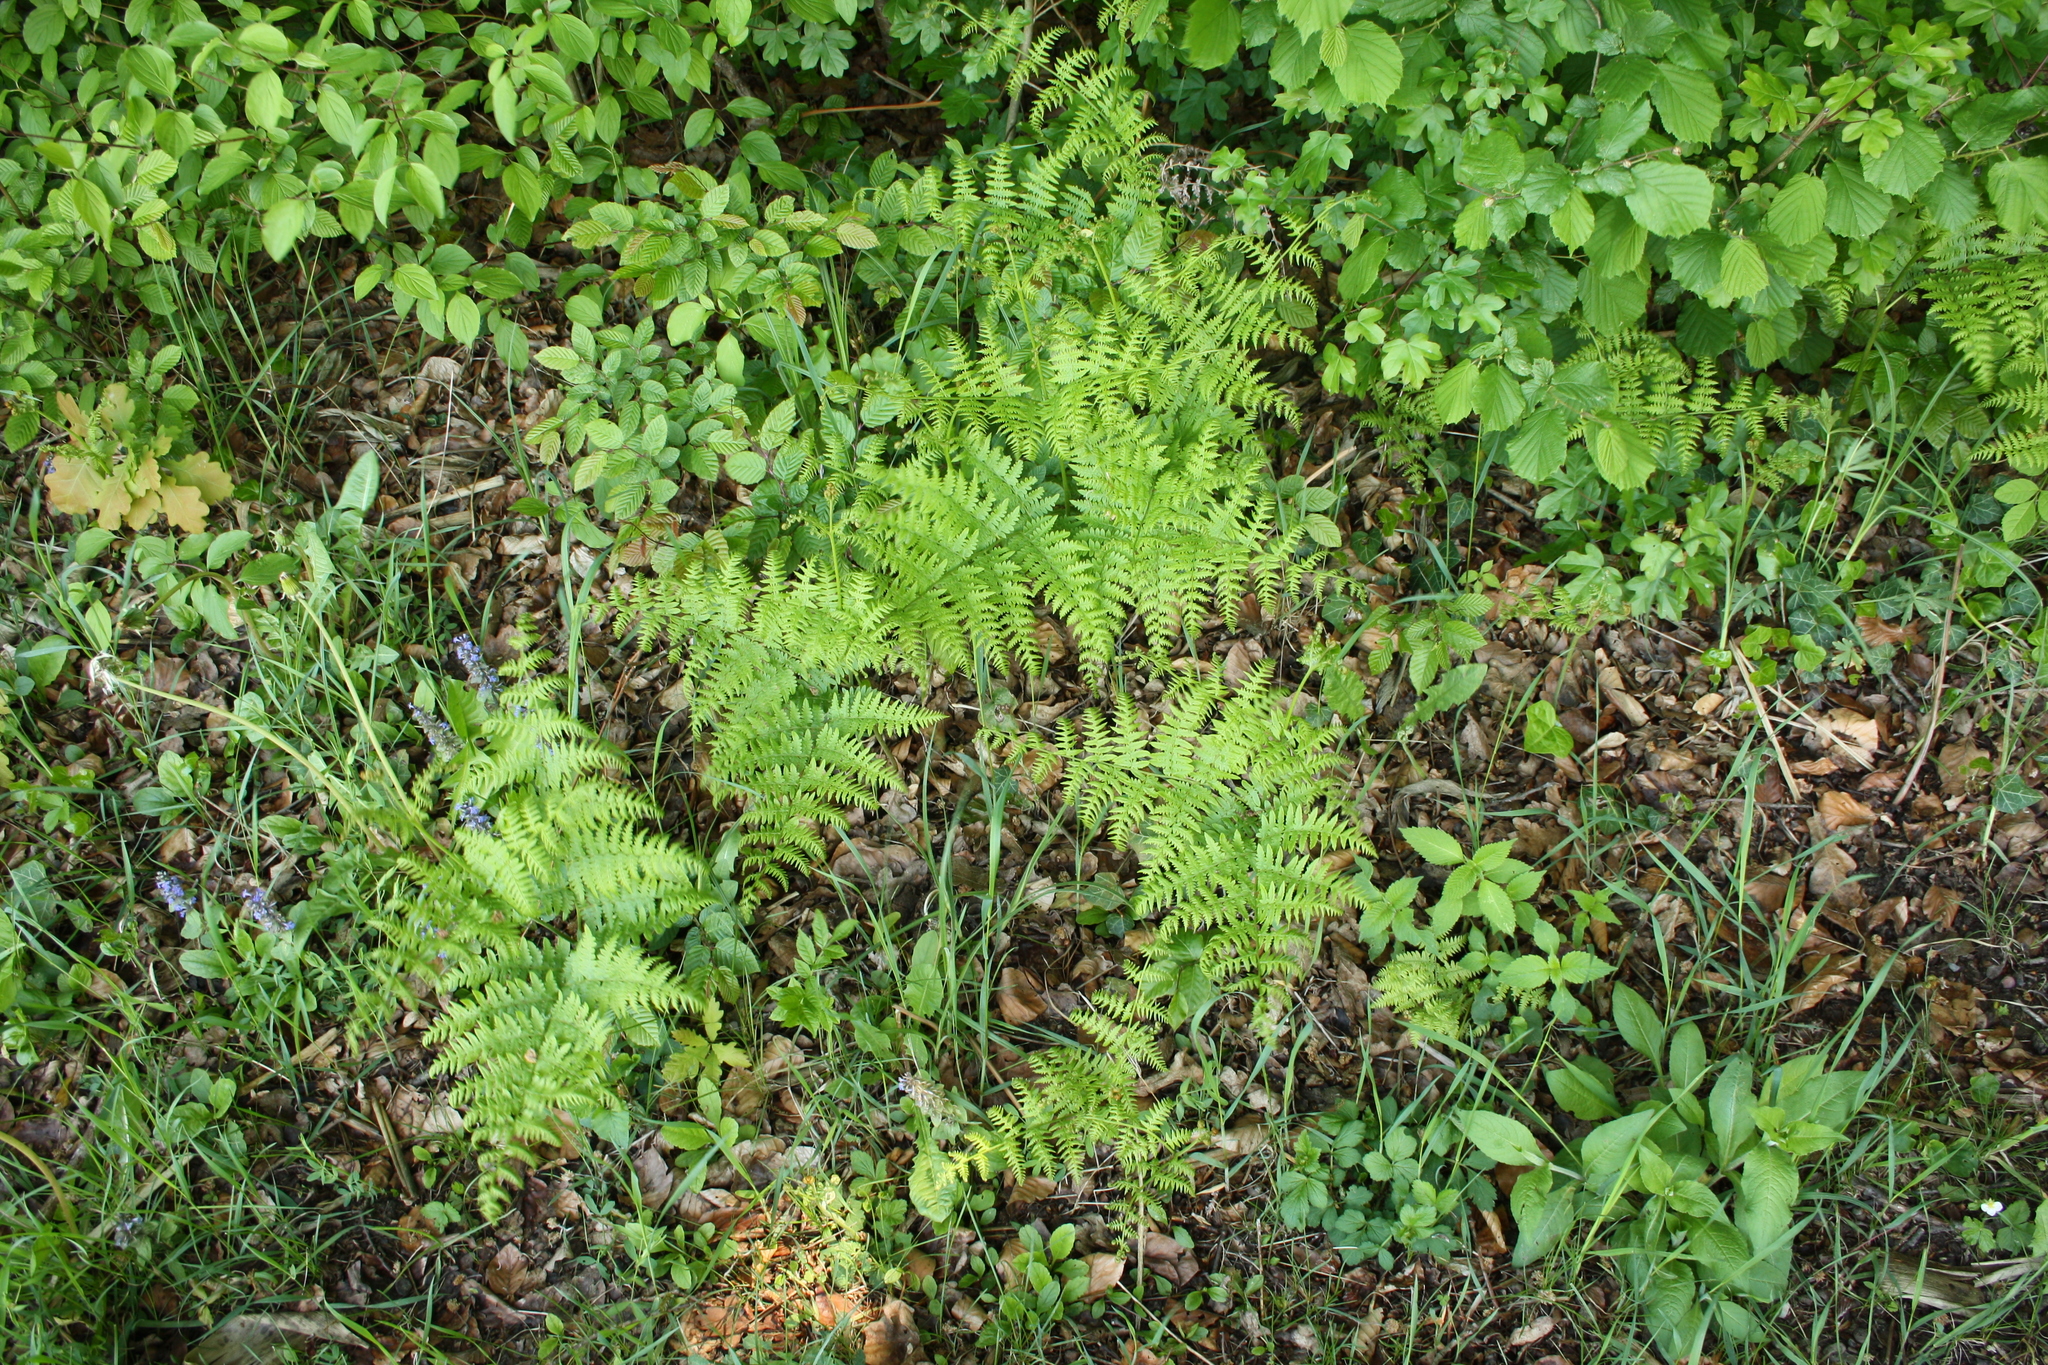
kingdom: Plantae
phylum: Tracheophyta
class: Polypodiopsida
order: Polypodiales
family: Dennstaedtiaceae
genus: Pteridium
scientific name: Pteridium aquilinum
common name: Bracken
